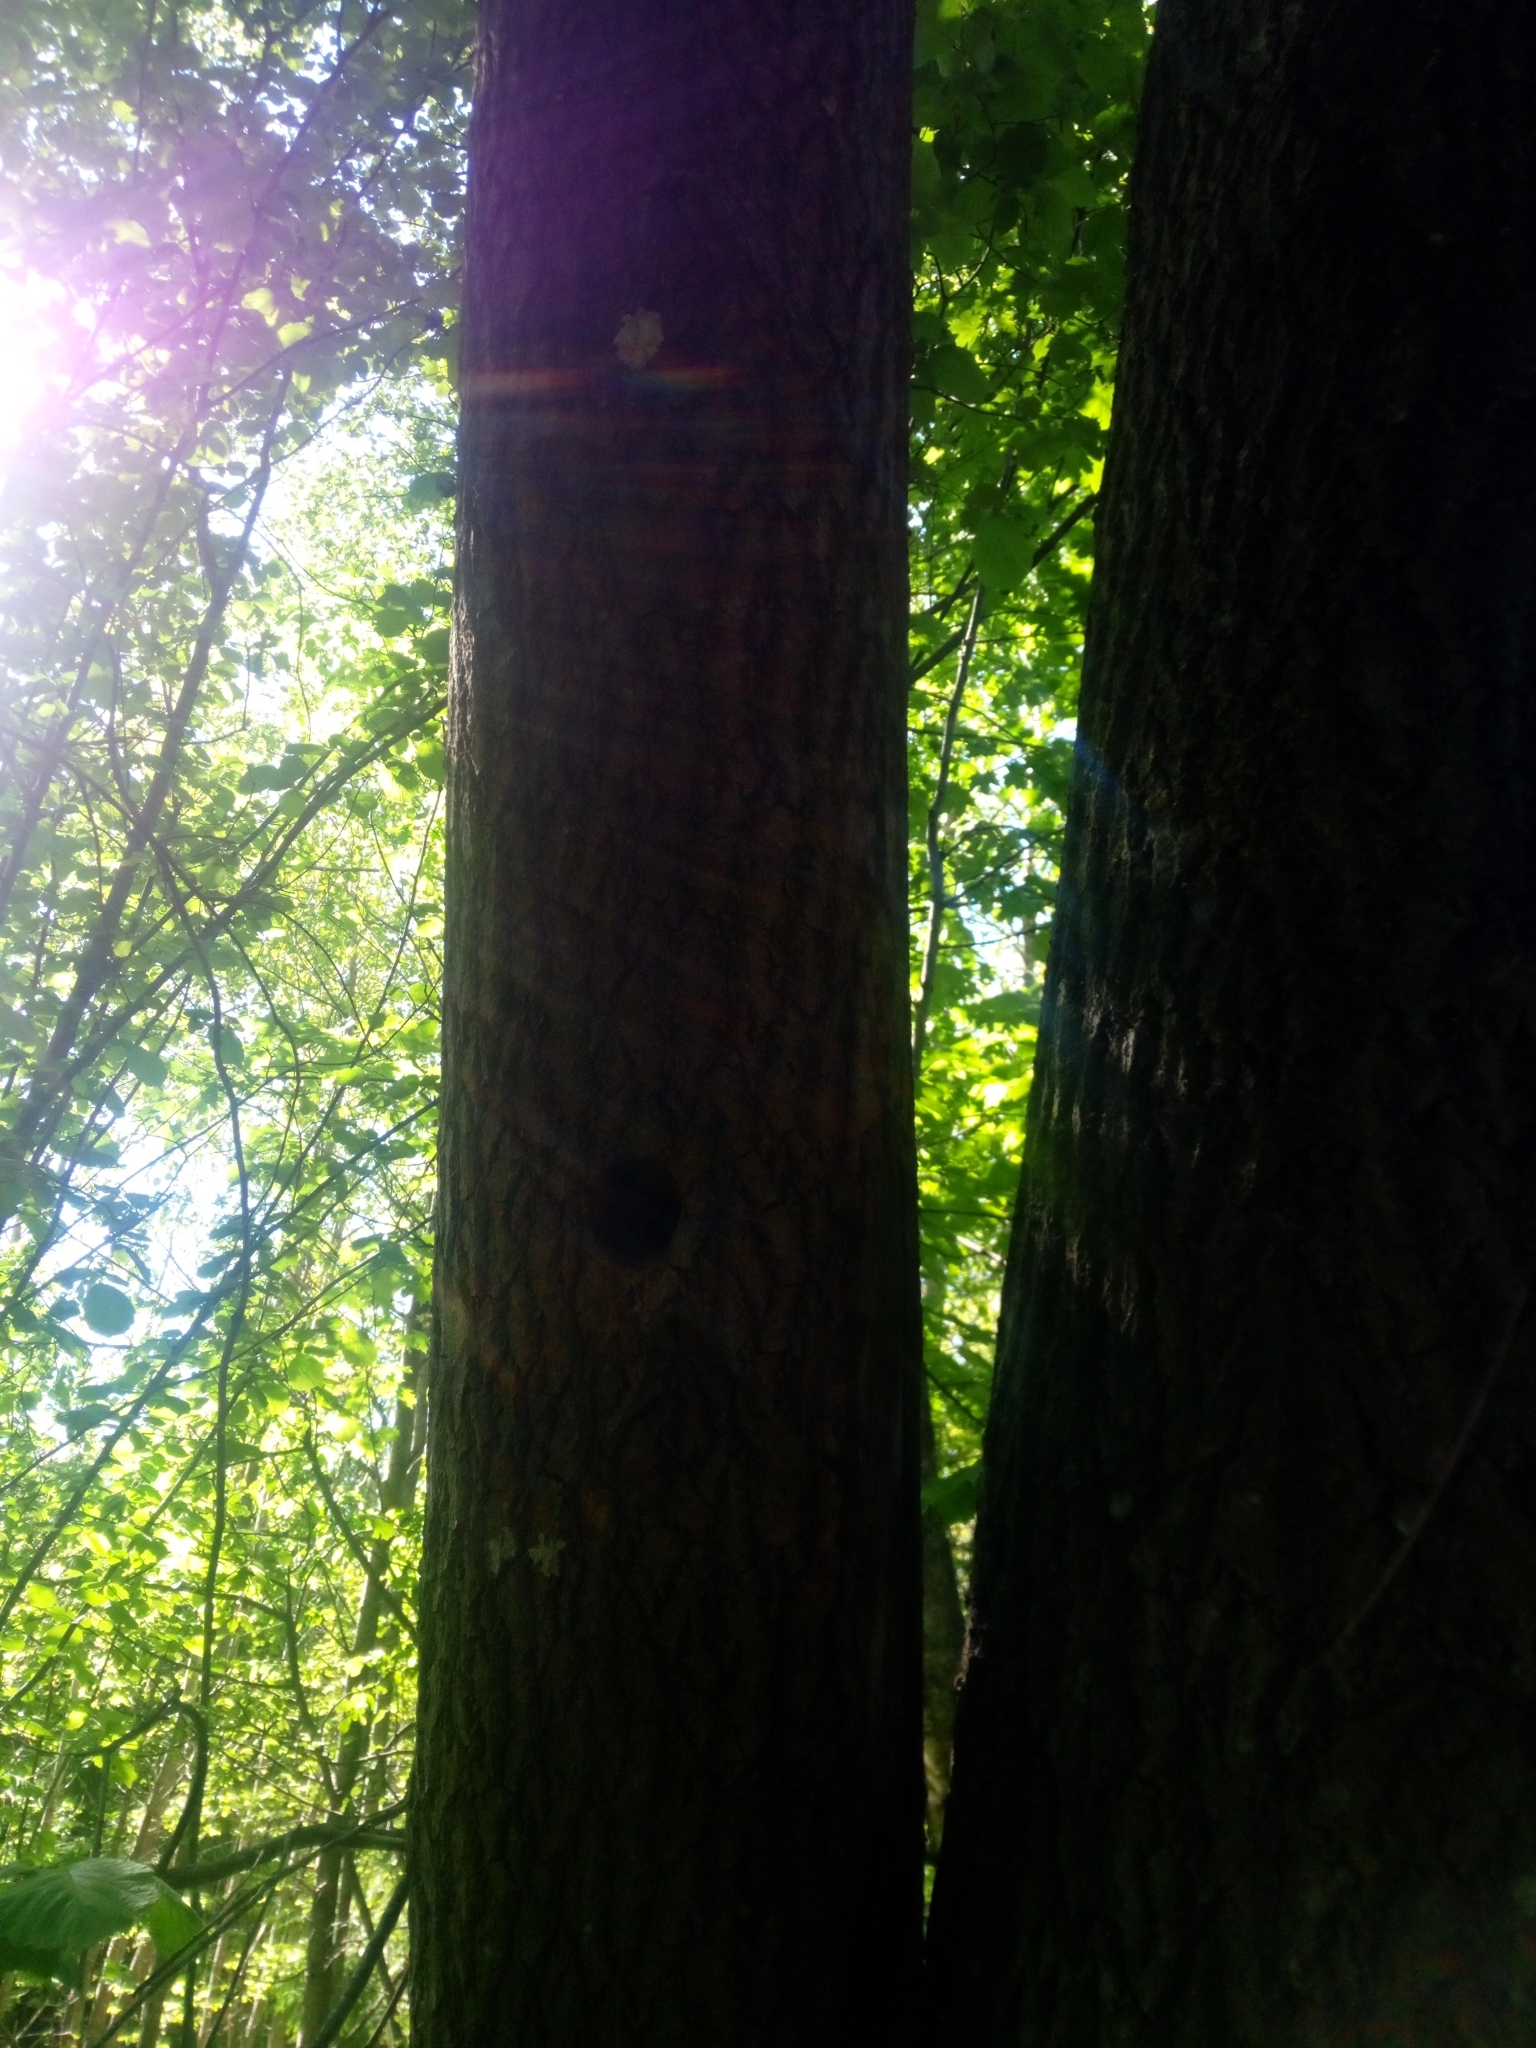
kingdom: Animalia
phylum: Chordata
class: Aves
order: Piciformes
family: Picidae
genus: Dendrocopos
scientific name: Dendrocopos major
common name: Great spotted woodpecker
